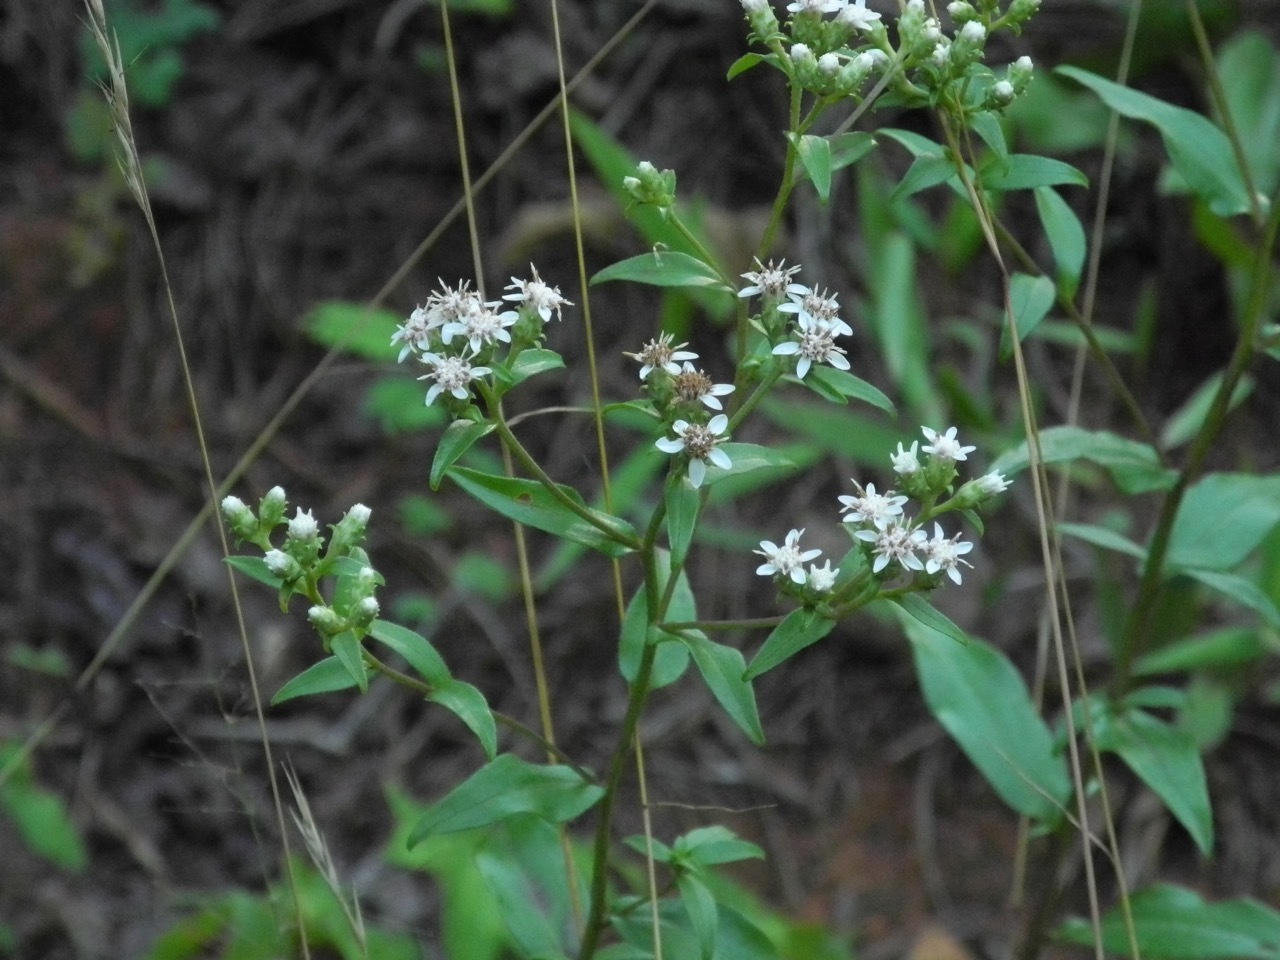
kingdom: Plantae
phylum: Tracheophyta
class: Magnoliopsida
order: Asterales
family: Asteraceae
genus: Sericocarpus
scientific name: Sericocarpus asteroides
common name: Toothed white-top aster
